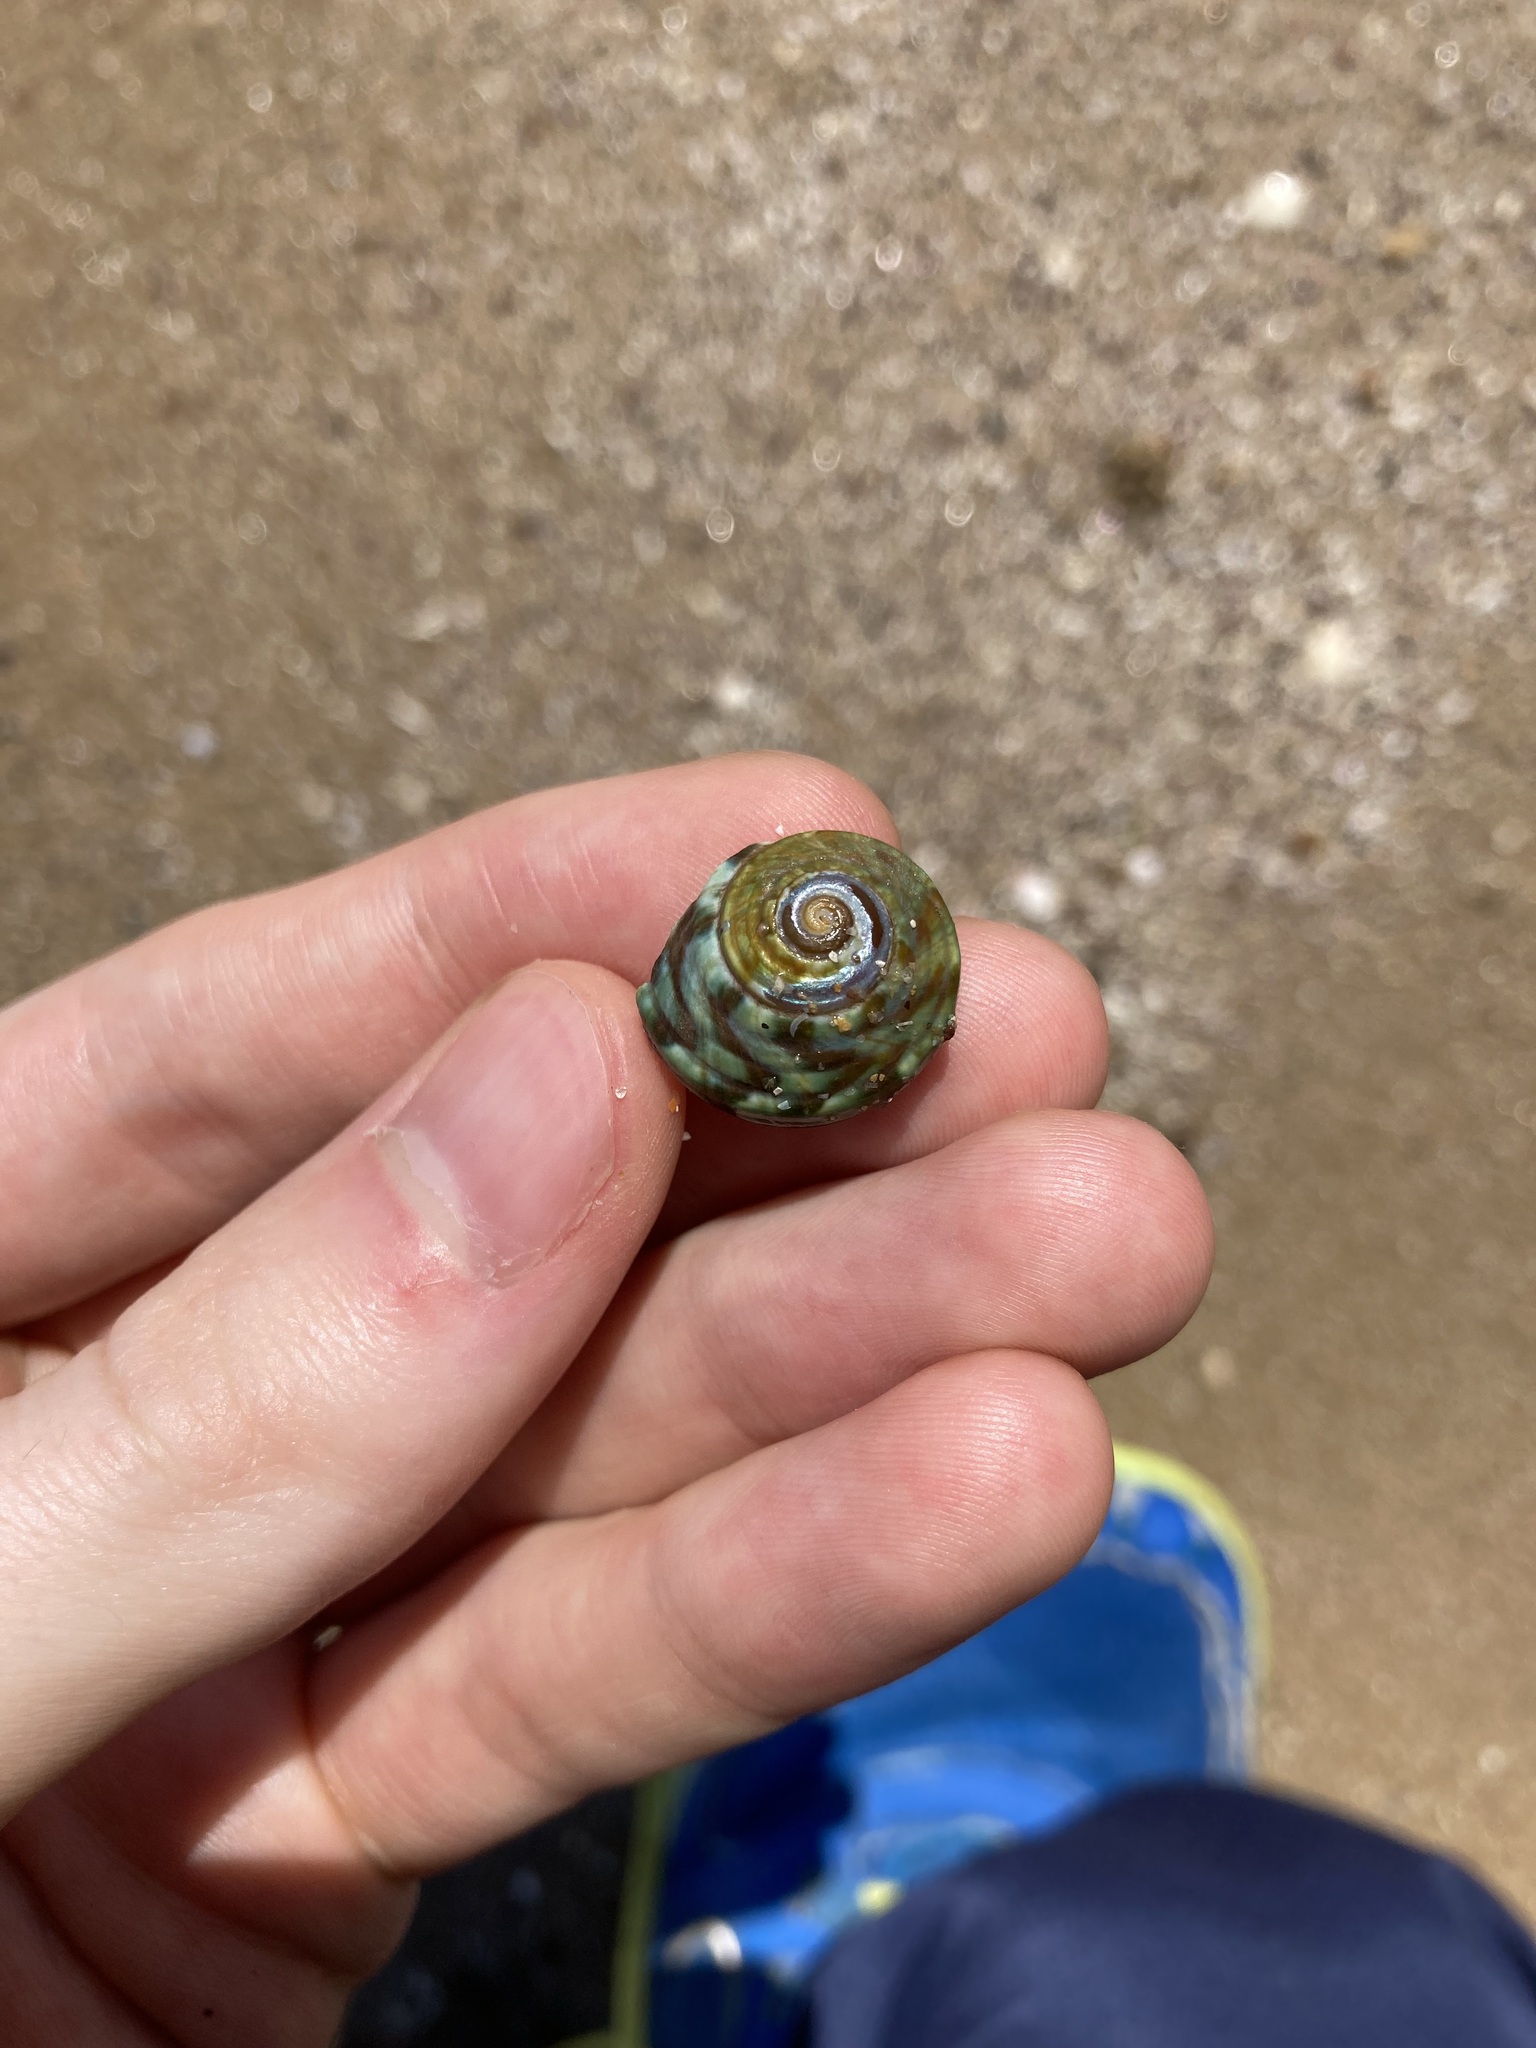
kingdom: Animalia
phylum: Mollusca
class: Gastropoda
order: Trochida
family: Turbinidae
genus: Lunella
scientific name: Lunella undulata
